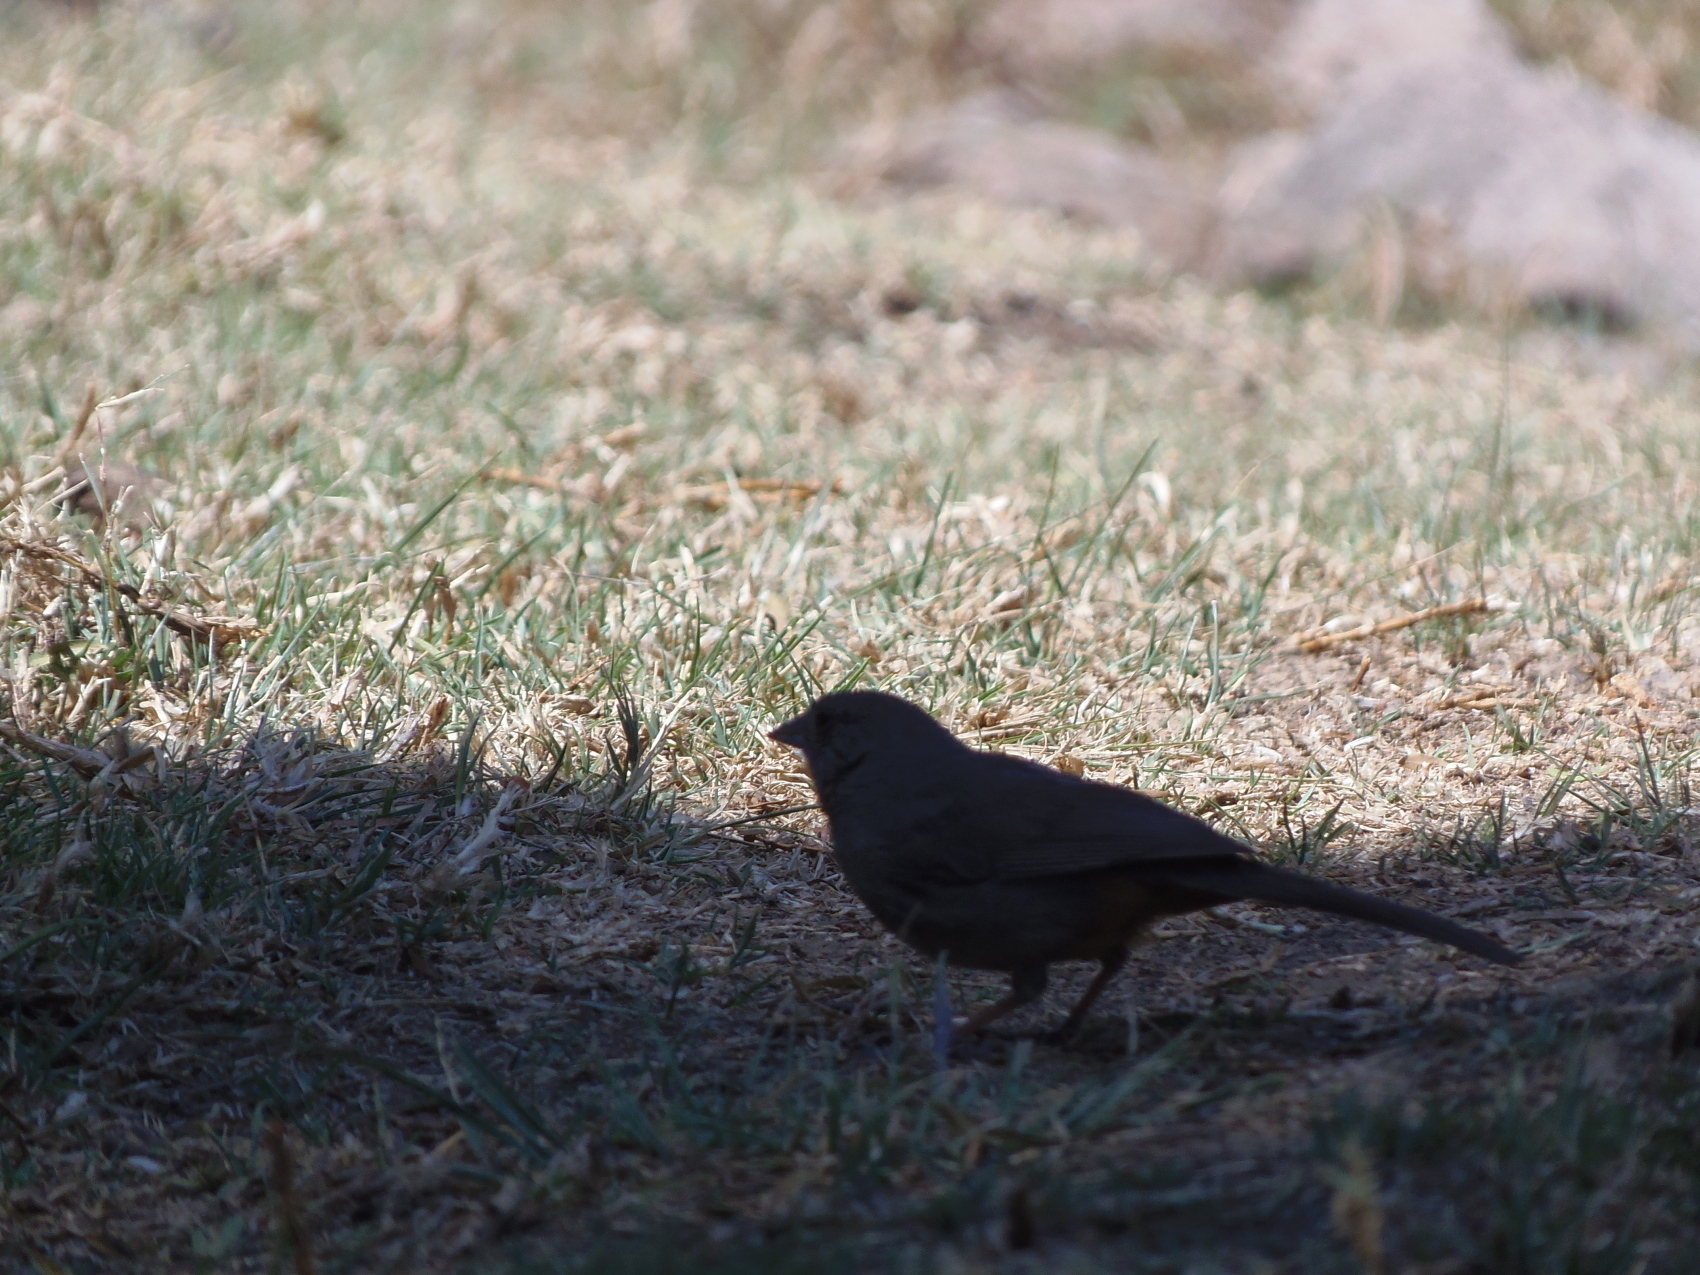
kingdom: Animalia
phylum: Chordata
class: Aves
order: Passeriformes
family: Passerellidae
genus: Melozone
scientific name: Melozone fusca
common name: Canyon towhee
